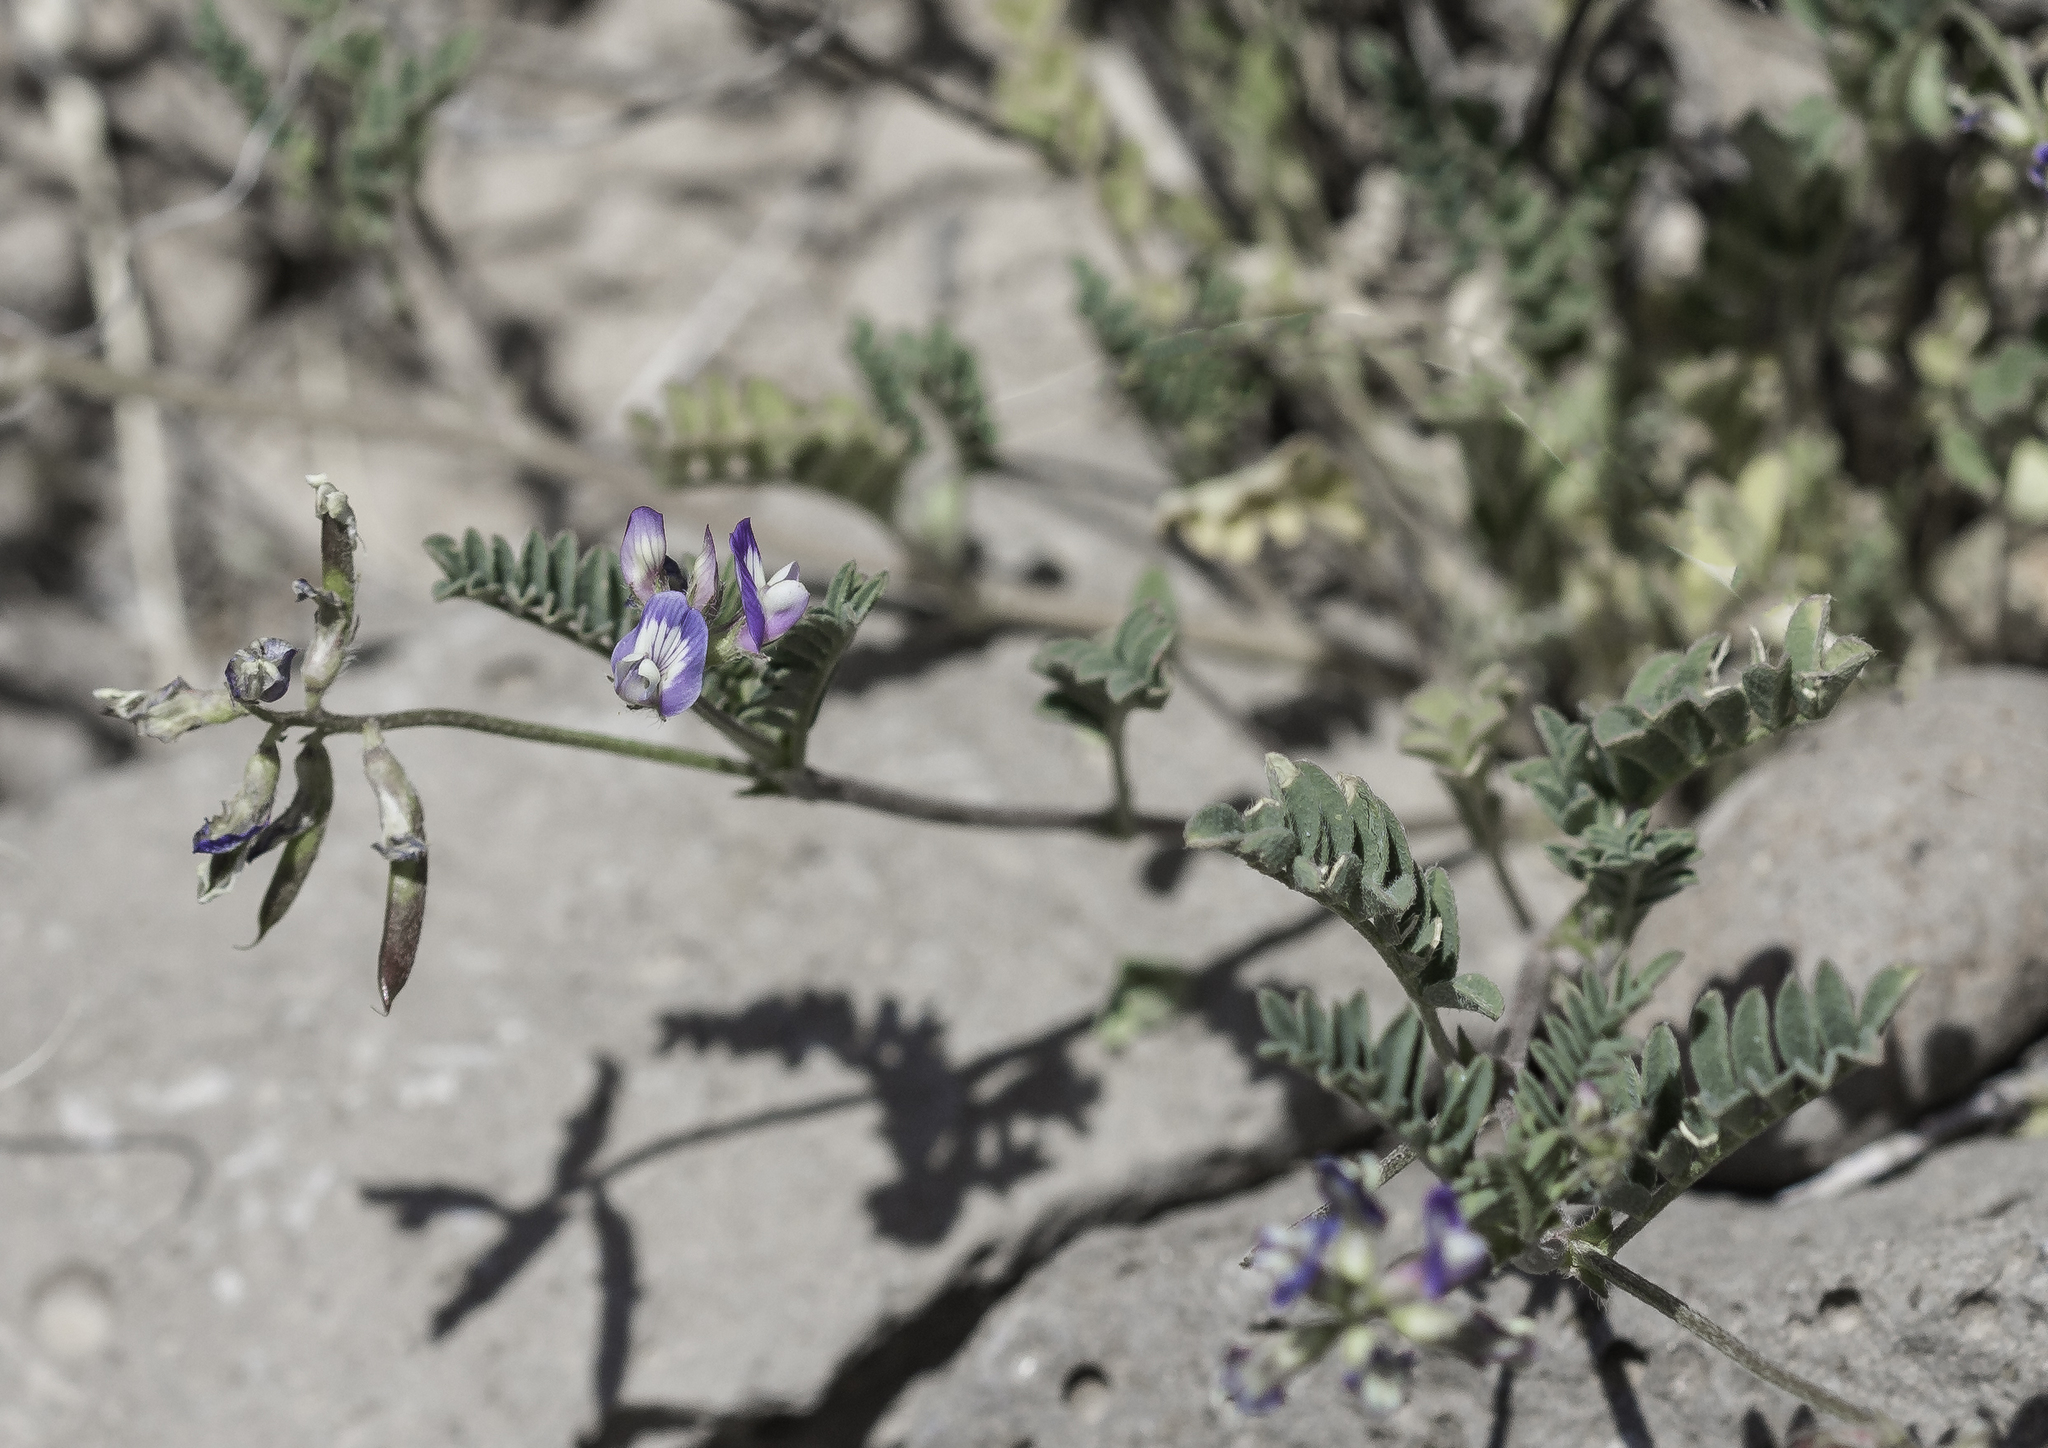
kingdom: Plantae
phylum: Tracheophyta
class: Magnoliopsida
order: Fabales
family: Fabaceae
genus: Astragalus
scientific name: Astragalus nuttallianus
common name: Smallflowered milkvetch
